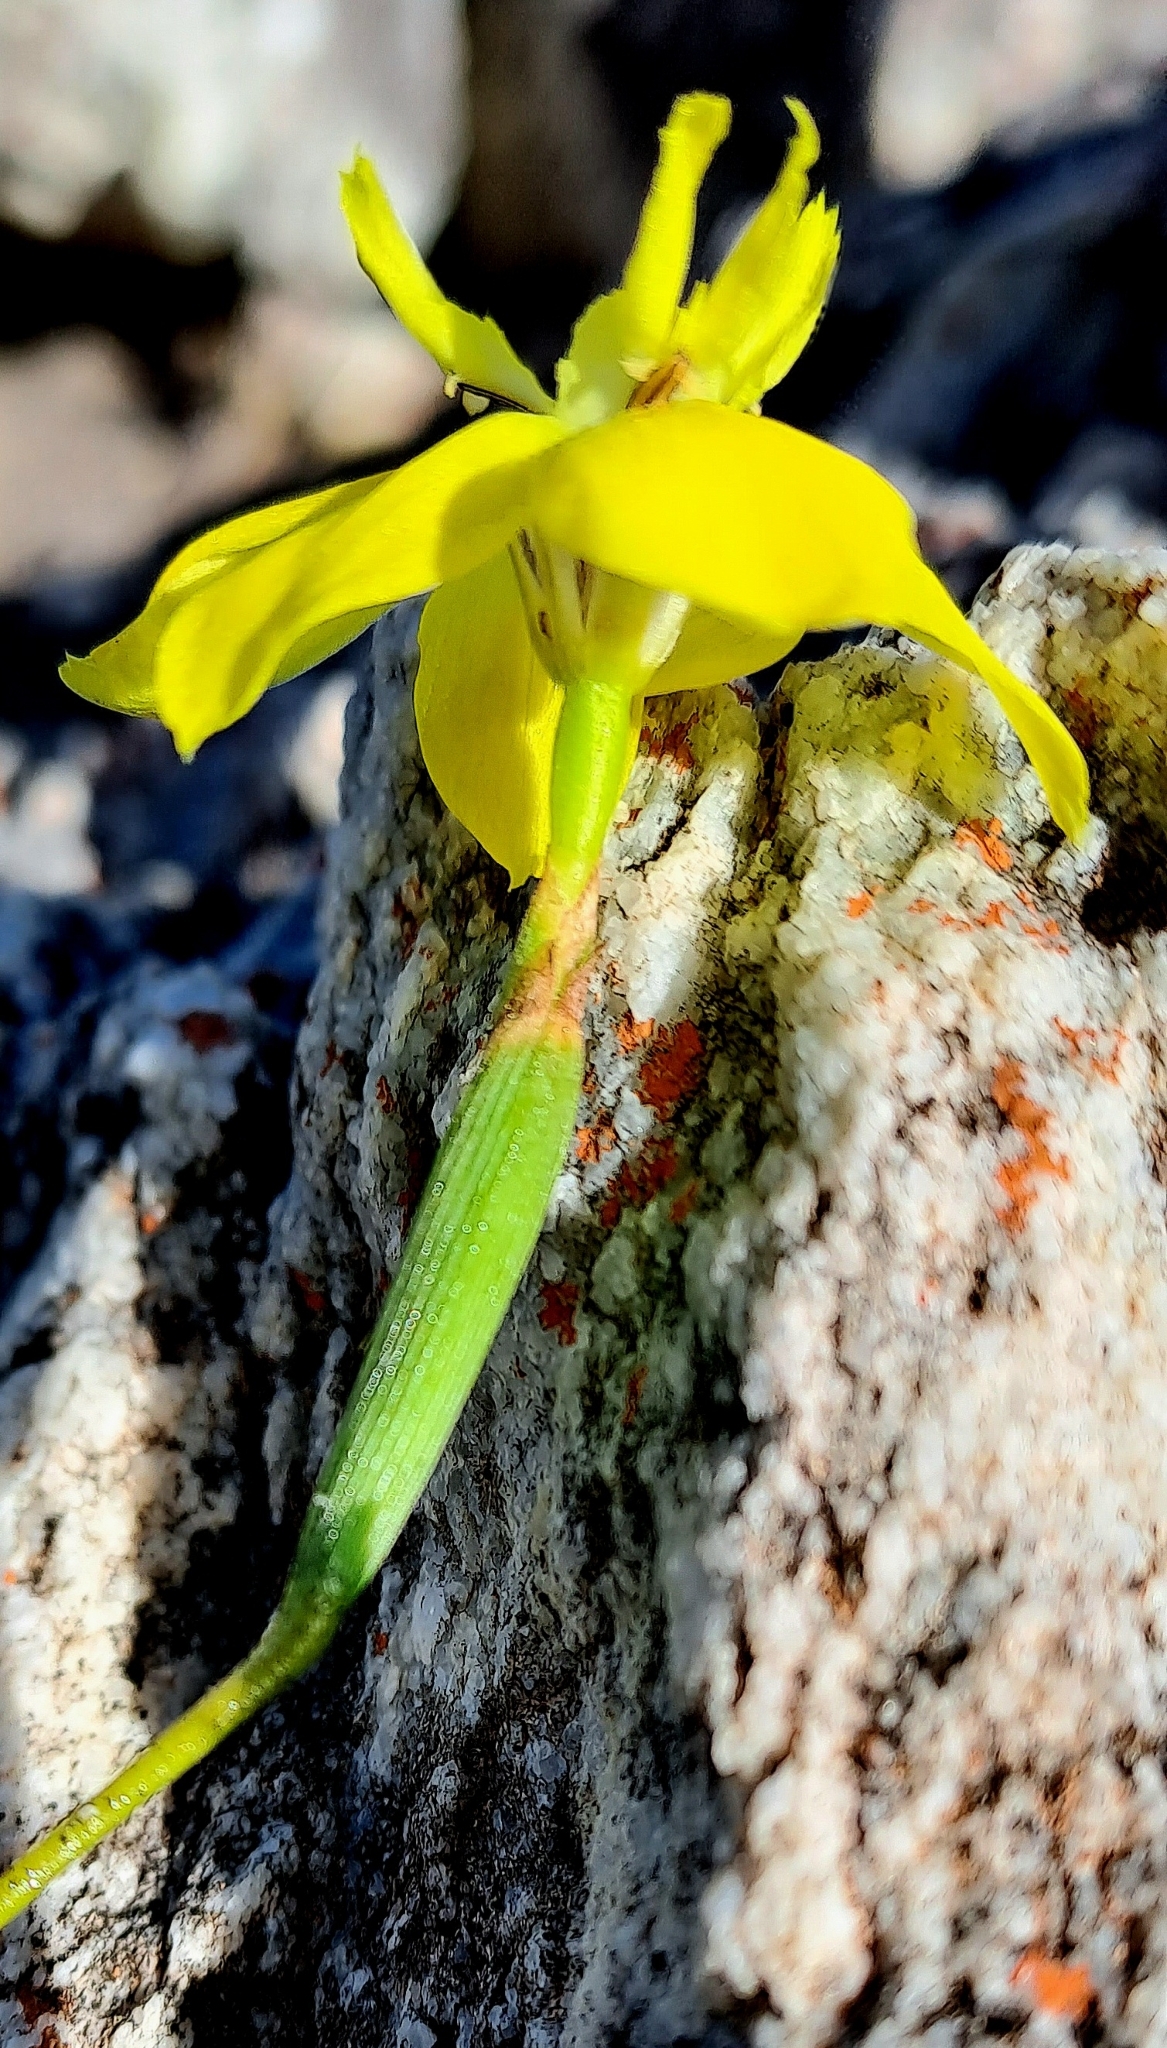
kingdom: Plantae
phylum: Tracheophyta
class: Liliopsida
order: Asparagales
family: Iridaceae
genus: Moraea
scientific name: Moraea ramosissima
